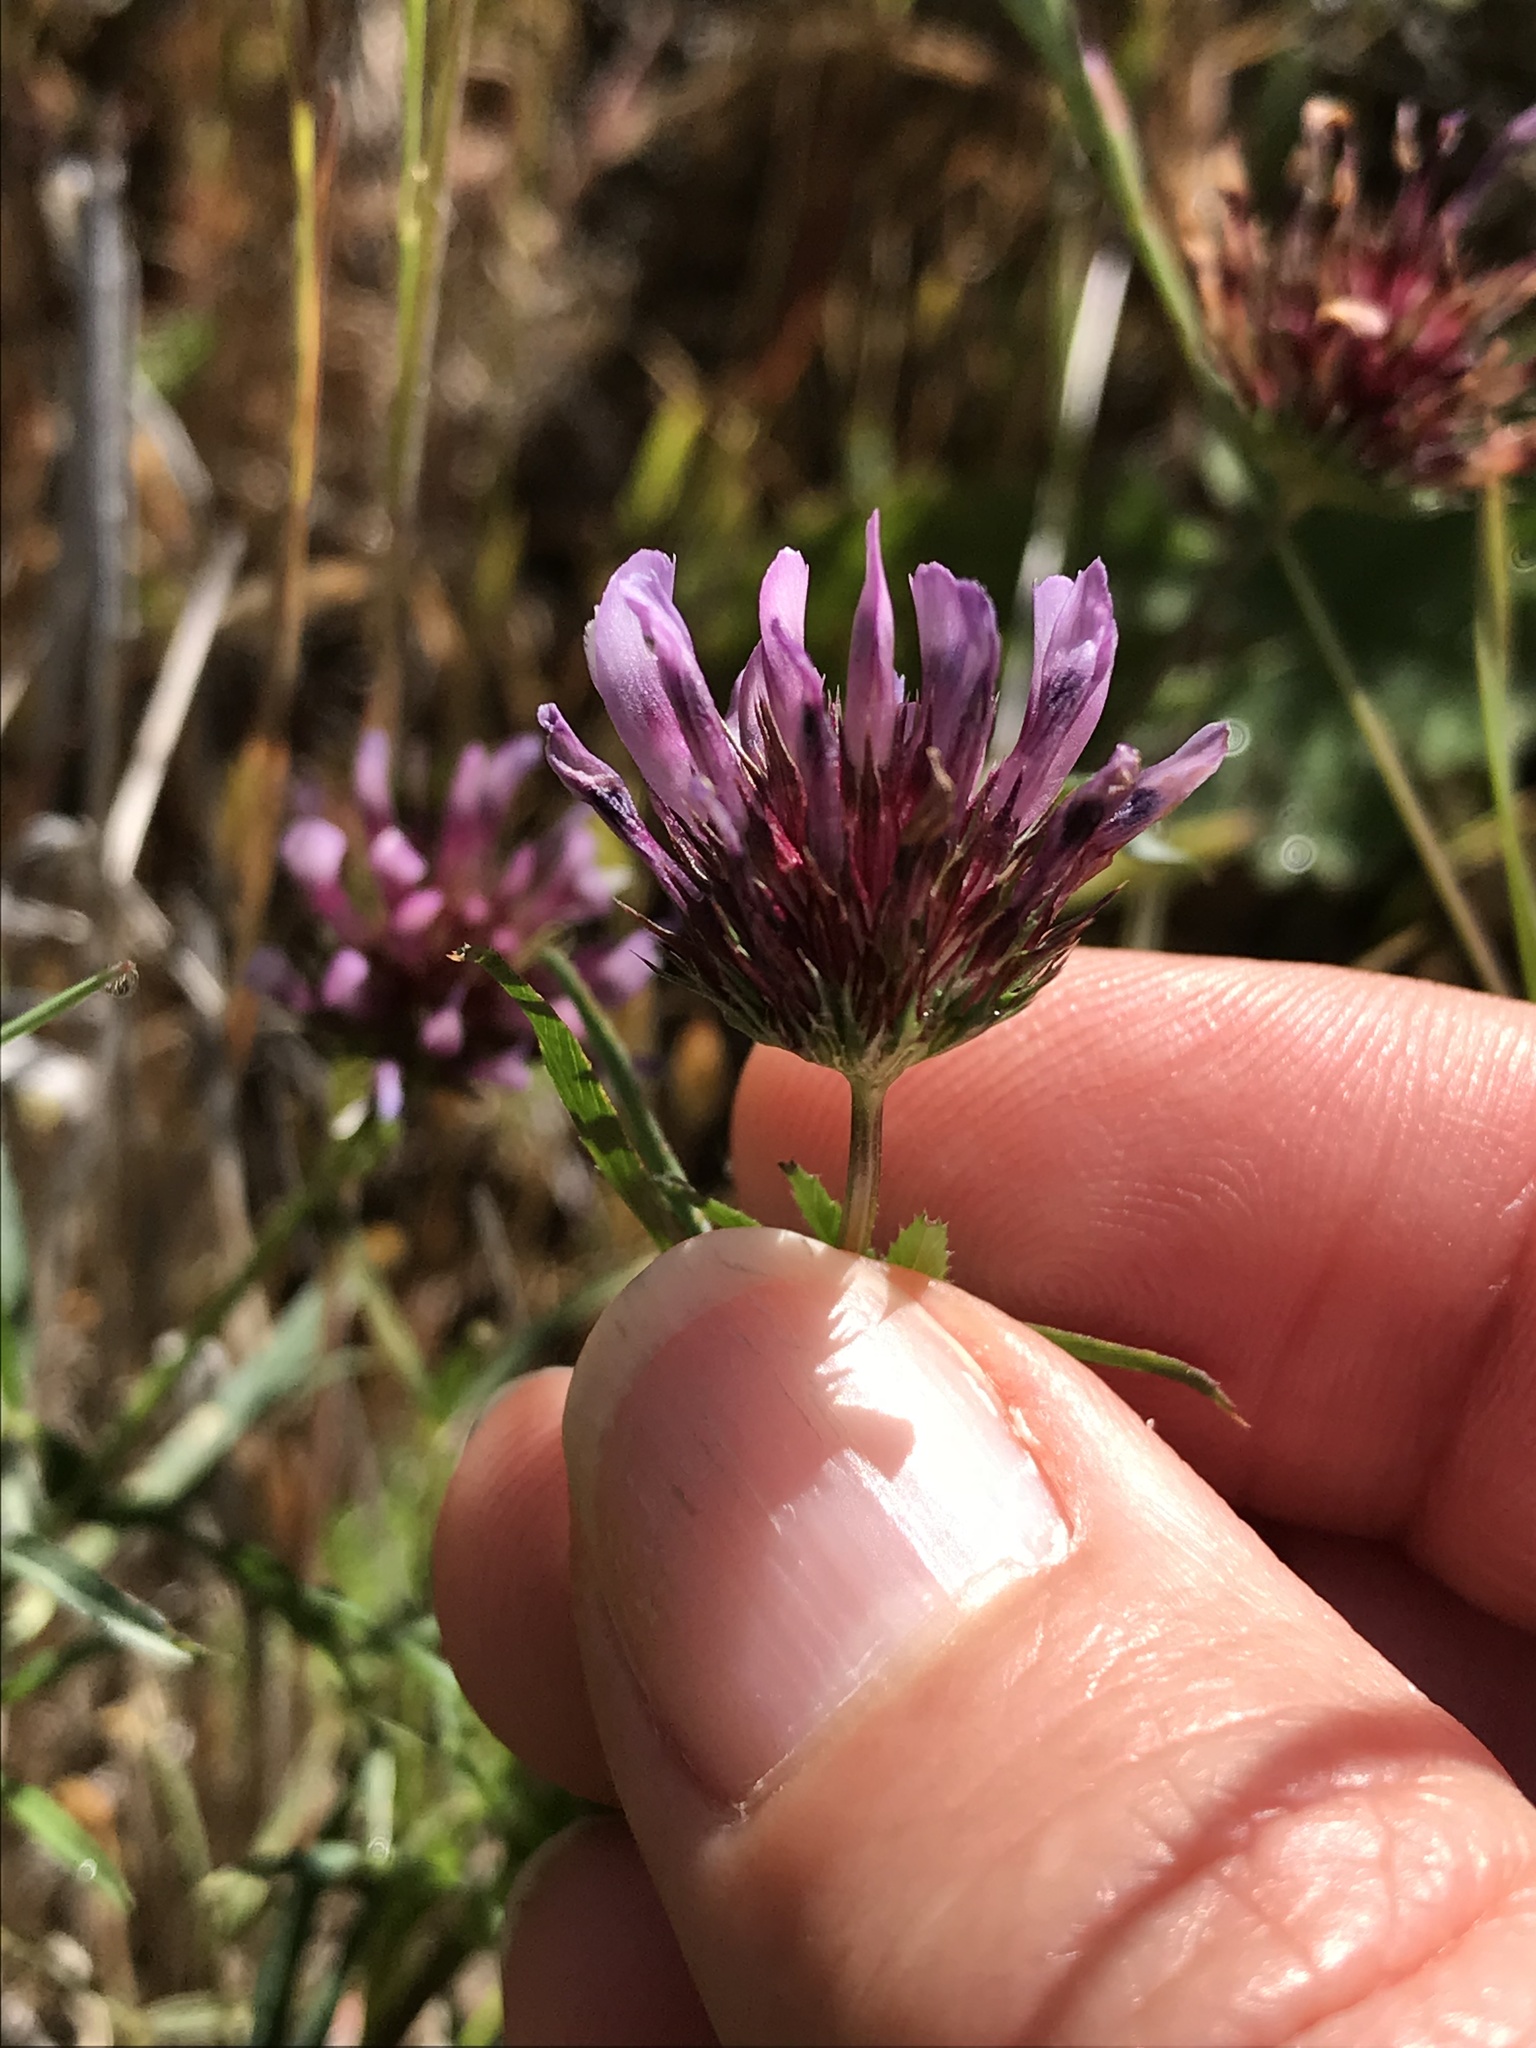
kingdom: Plantae
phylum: Tracheophyta
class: Magnoliopsida
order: Fabales
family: Fabaceae
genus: Trifolium
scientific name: Trifolium willdenovii
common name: Tomcat clover
